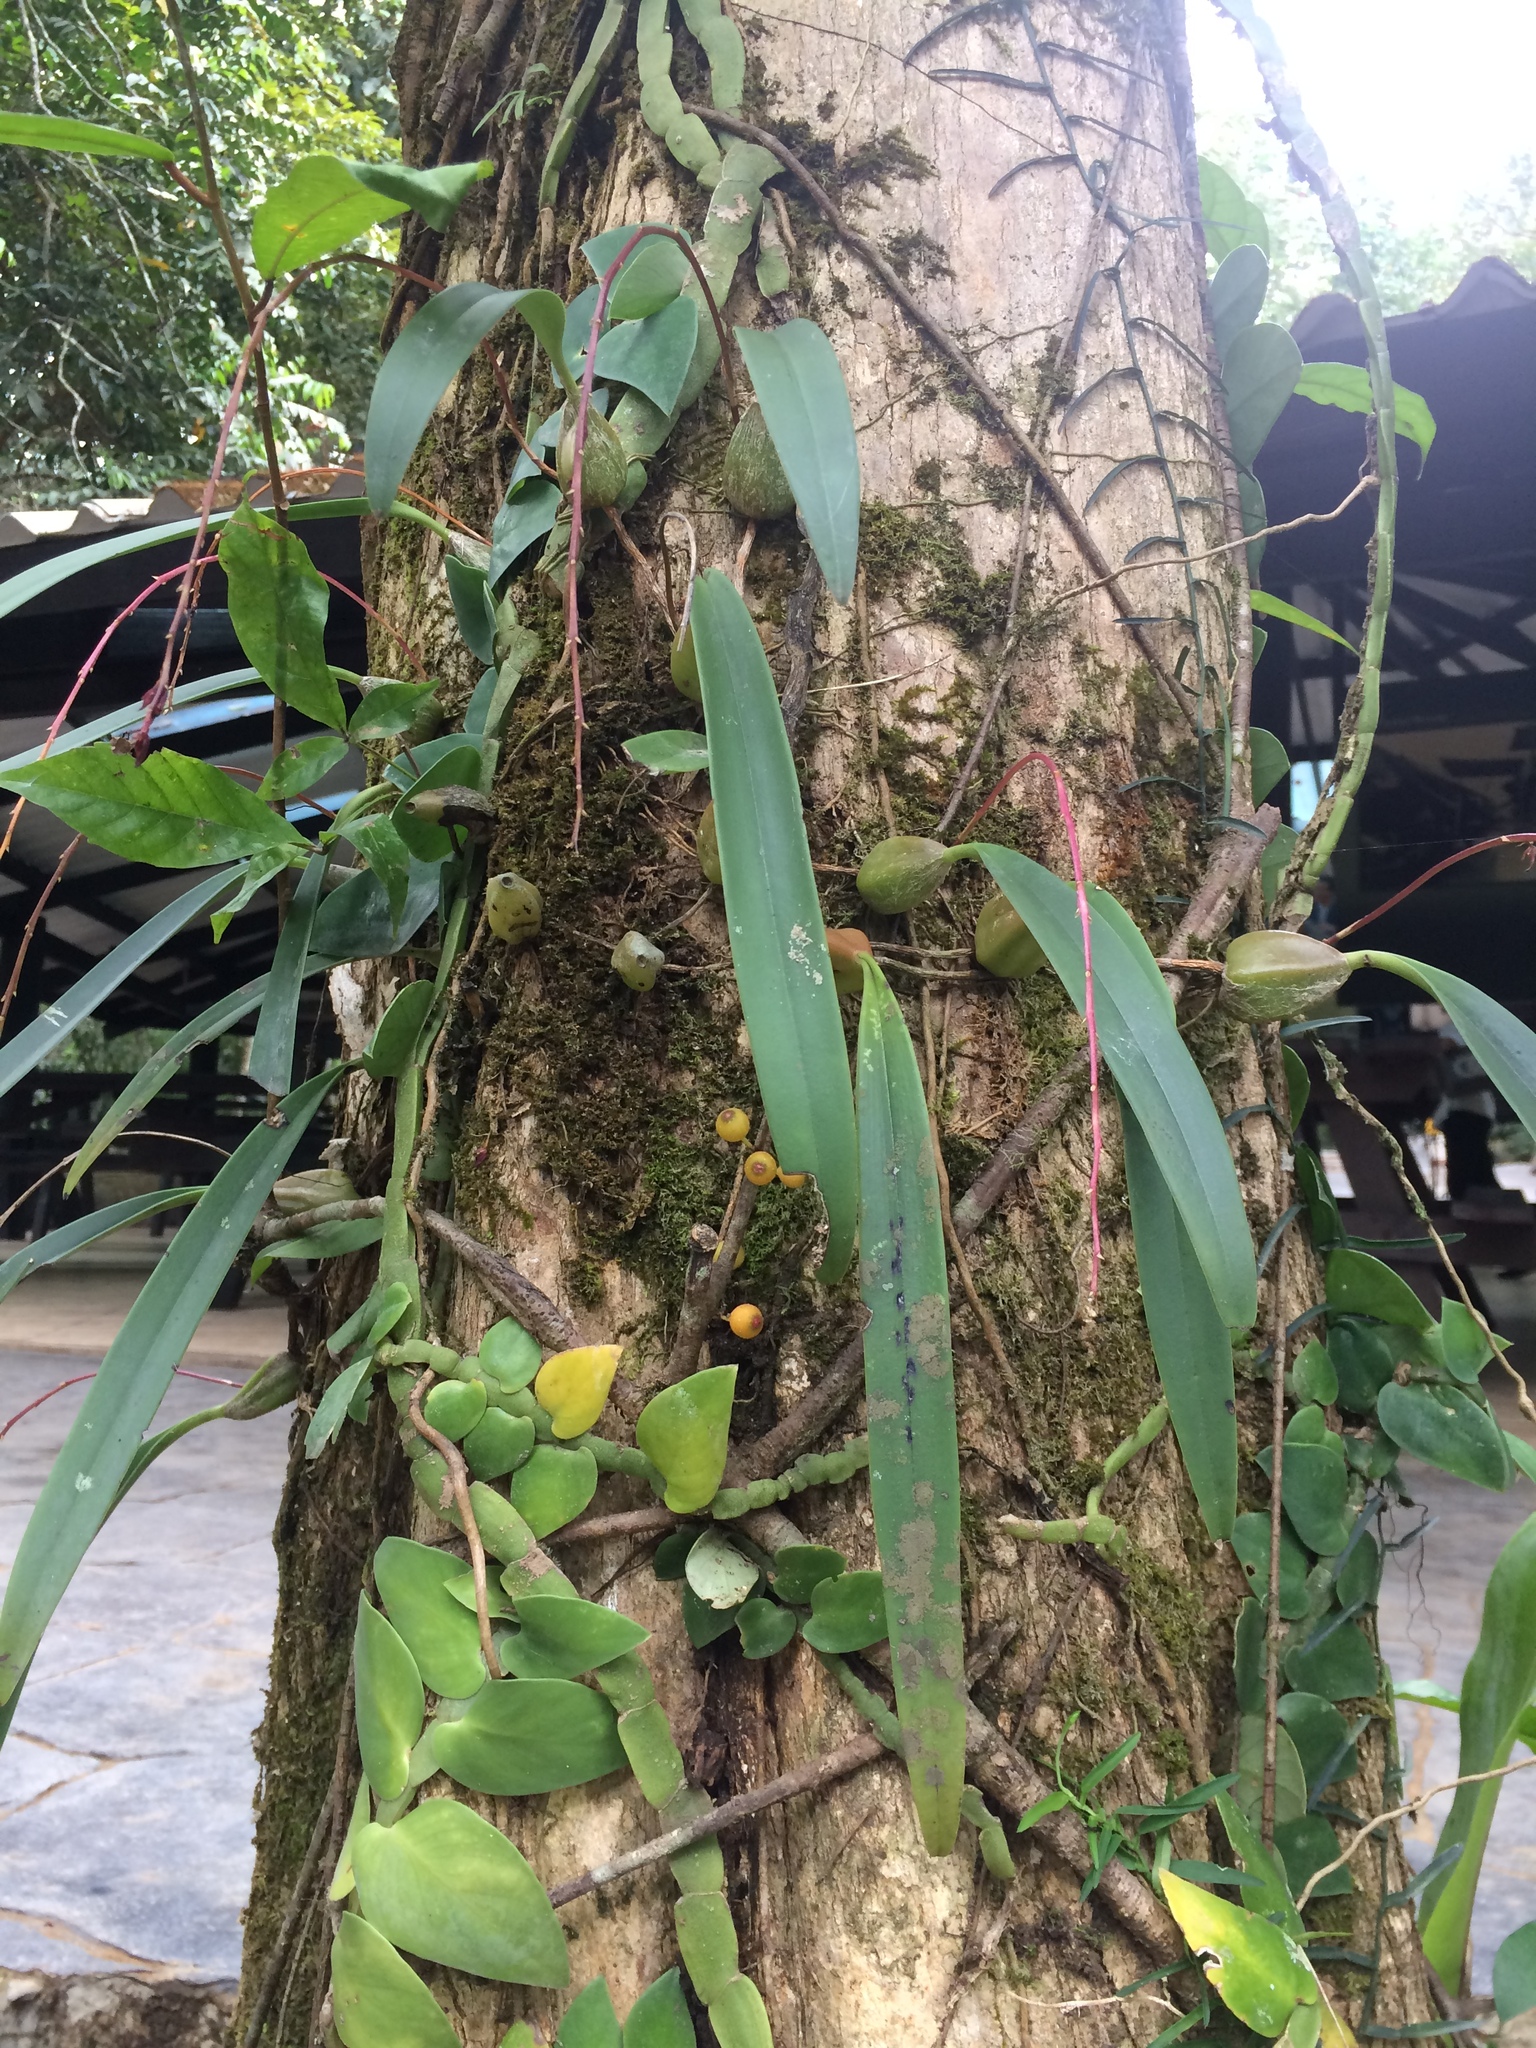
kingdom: Plantae
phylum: Tracheophyta
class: Liliopsida
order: Asparagales
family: Orchidaceae
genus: Bulbophyllum
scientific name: Bulbophyllum dissitiflorum
